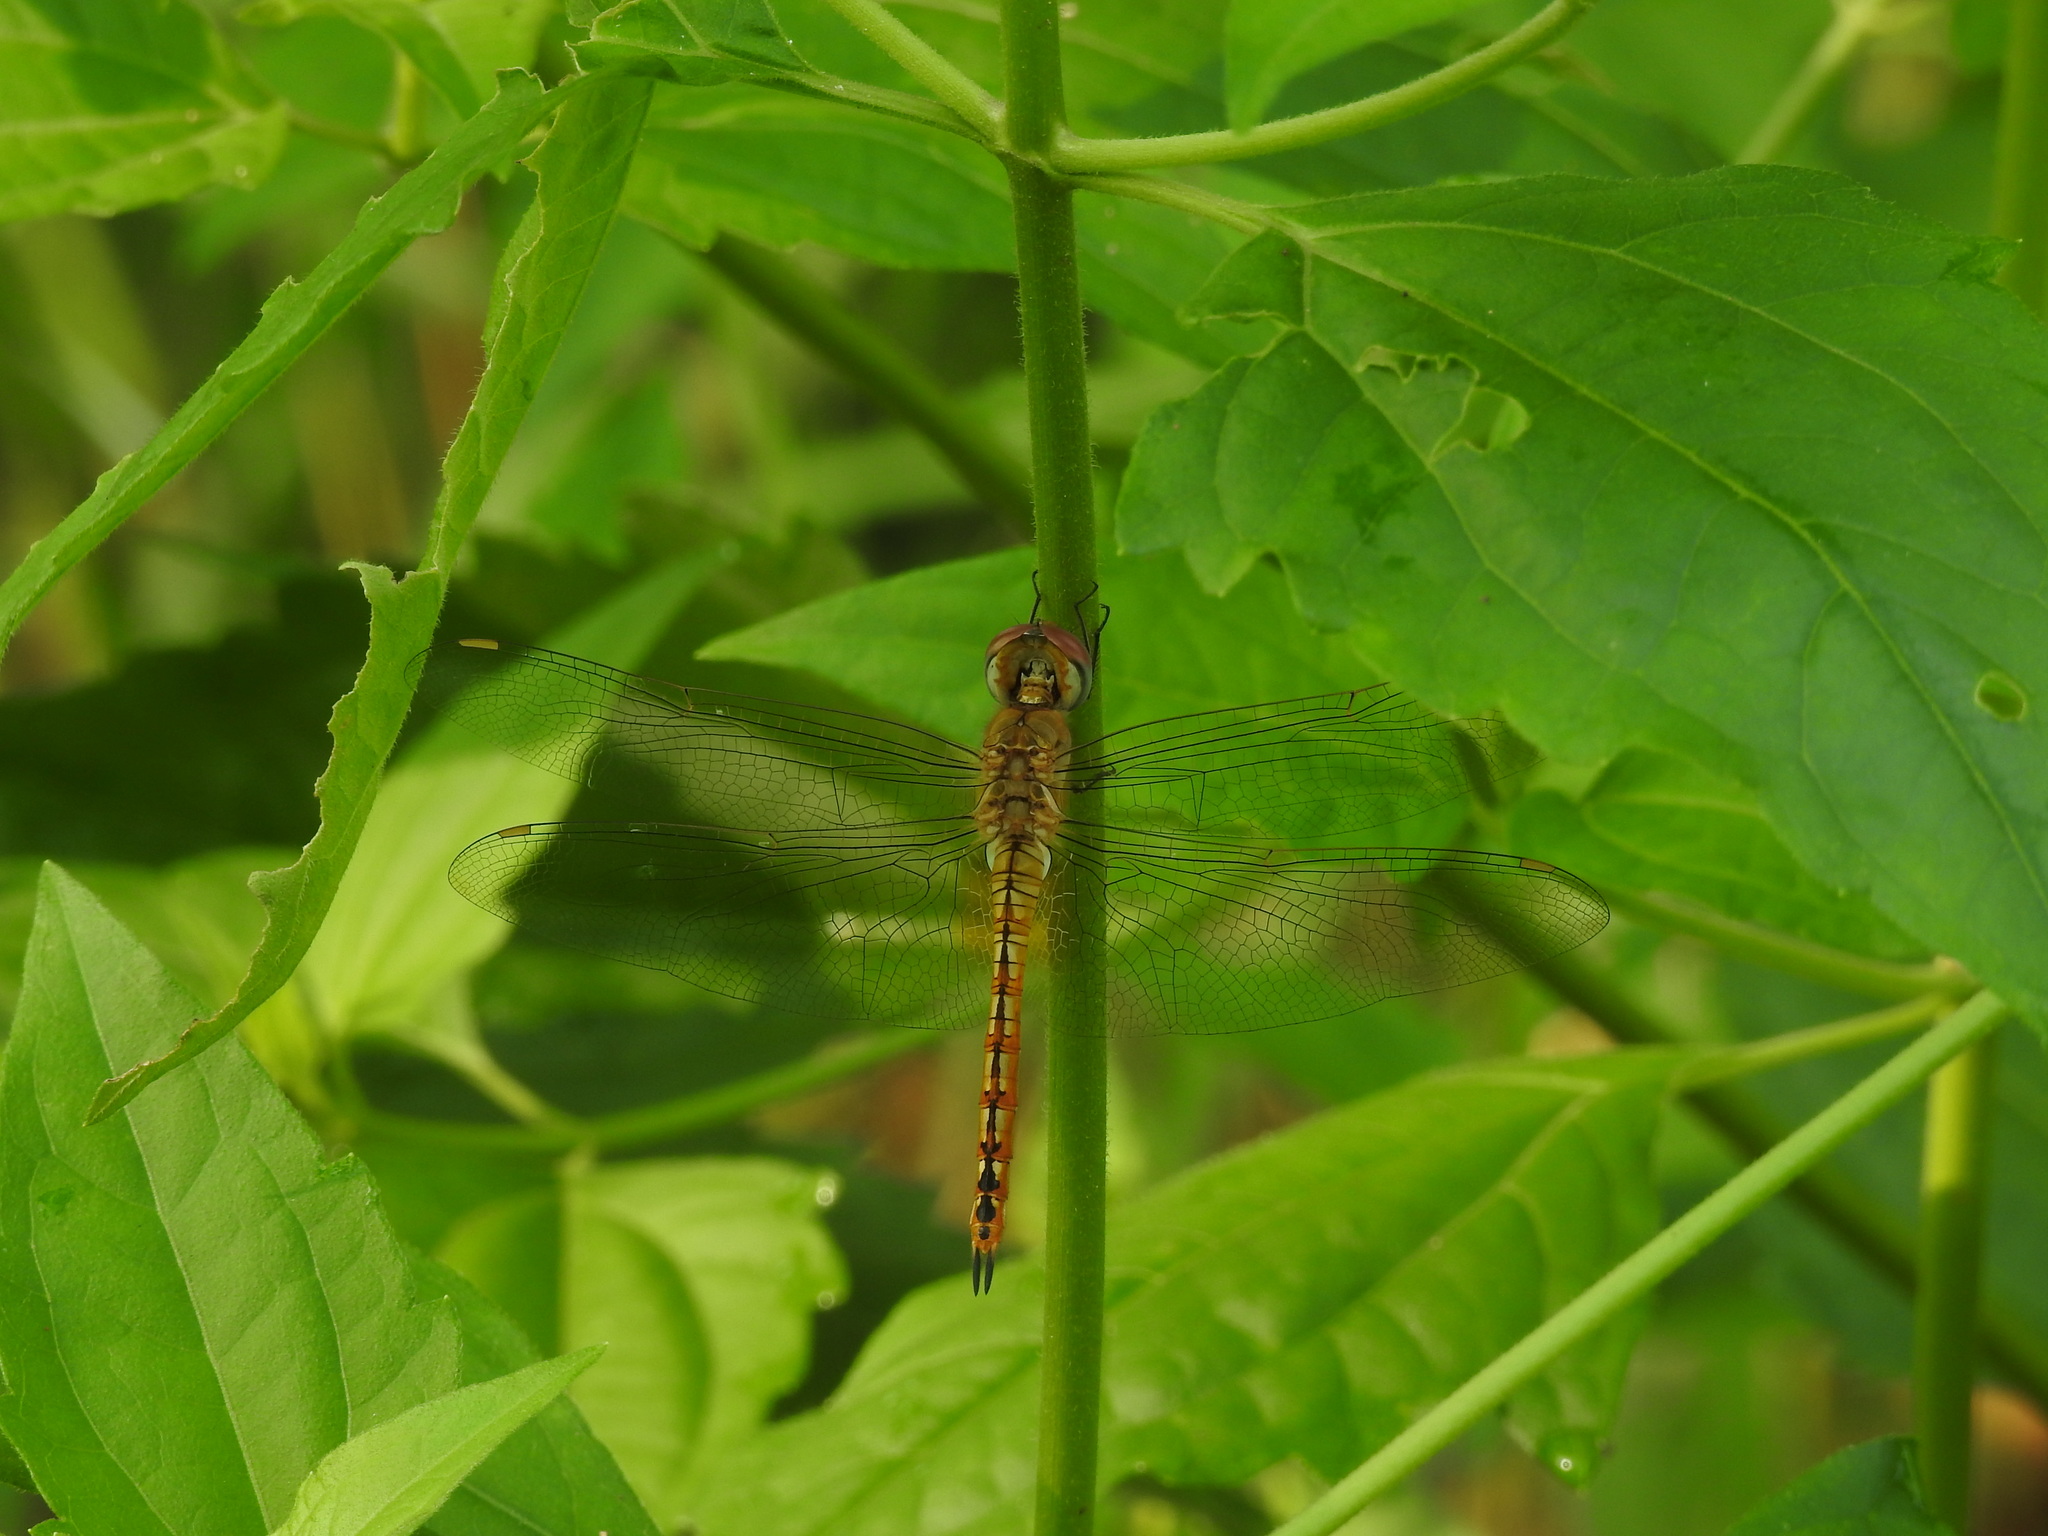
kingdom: Animalia
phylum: Arthropoda
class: Insecta
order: Odonata
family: Libellulidae
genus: Pantala
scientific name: Pantala flavescens
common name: Wandering glider
